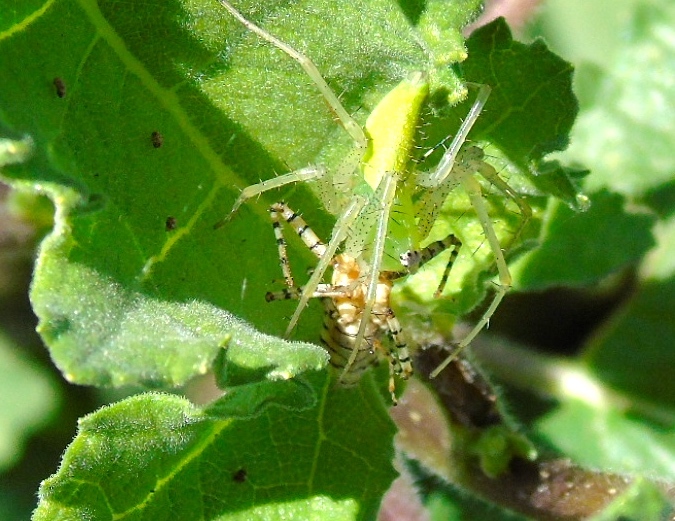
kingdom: Animalia
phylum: Arthropoda
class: Arachnida
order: Araneae
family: Oxyopidae
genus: Peucetia
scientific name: Peucetia longipalpis
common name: Lynx spiders
